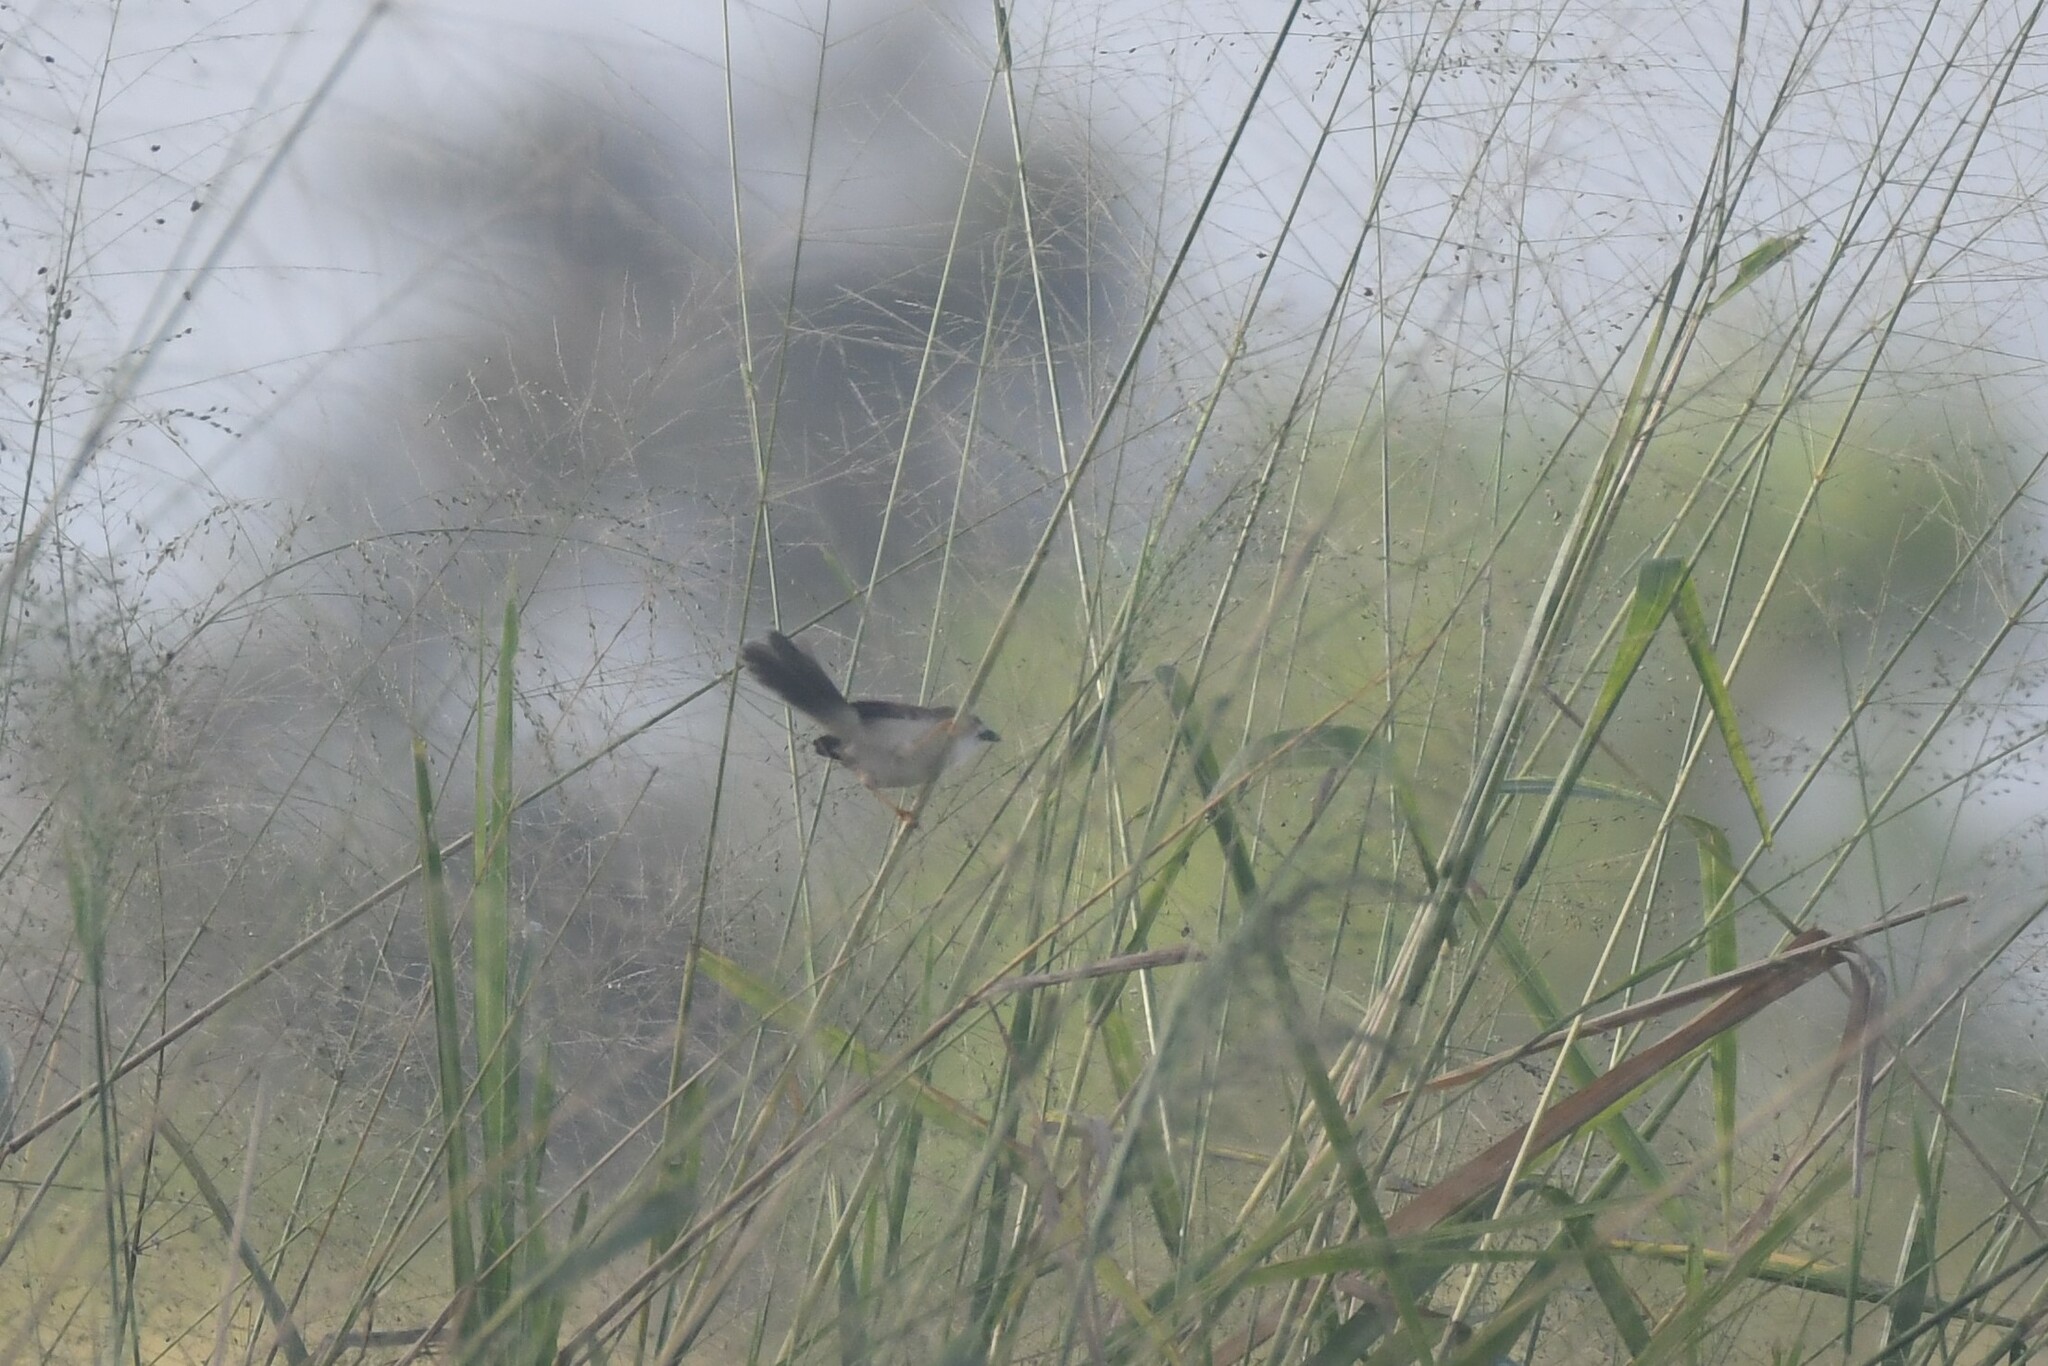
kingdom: Animalia
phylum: Chordata
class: Aves
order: Passeriformes
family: Sylviidae
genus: Chrysomma
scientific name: Chrysomma sinense
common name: Yellow-eyed babbler
